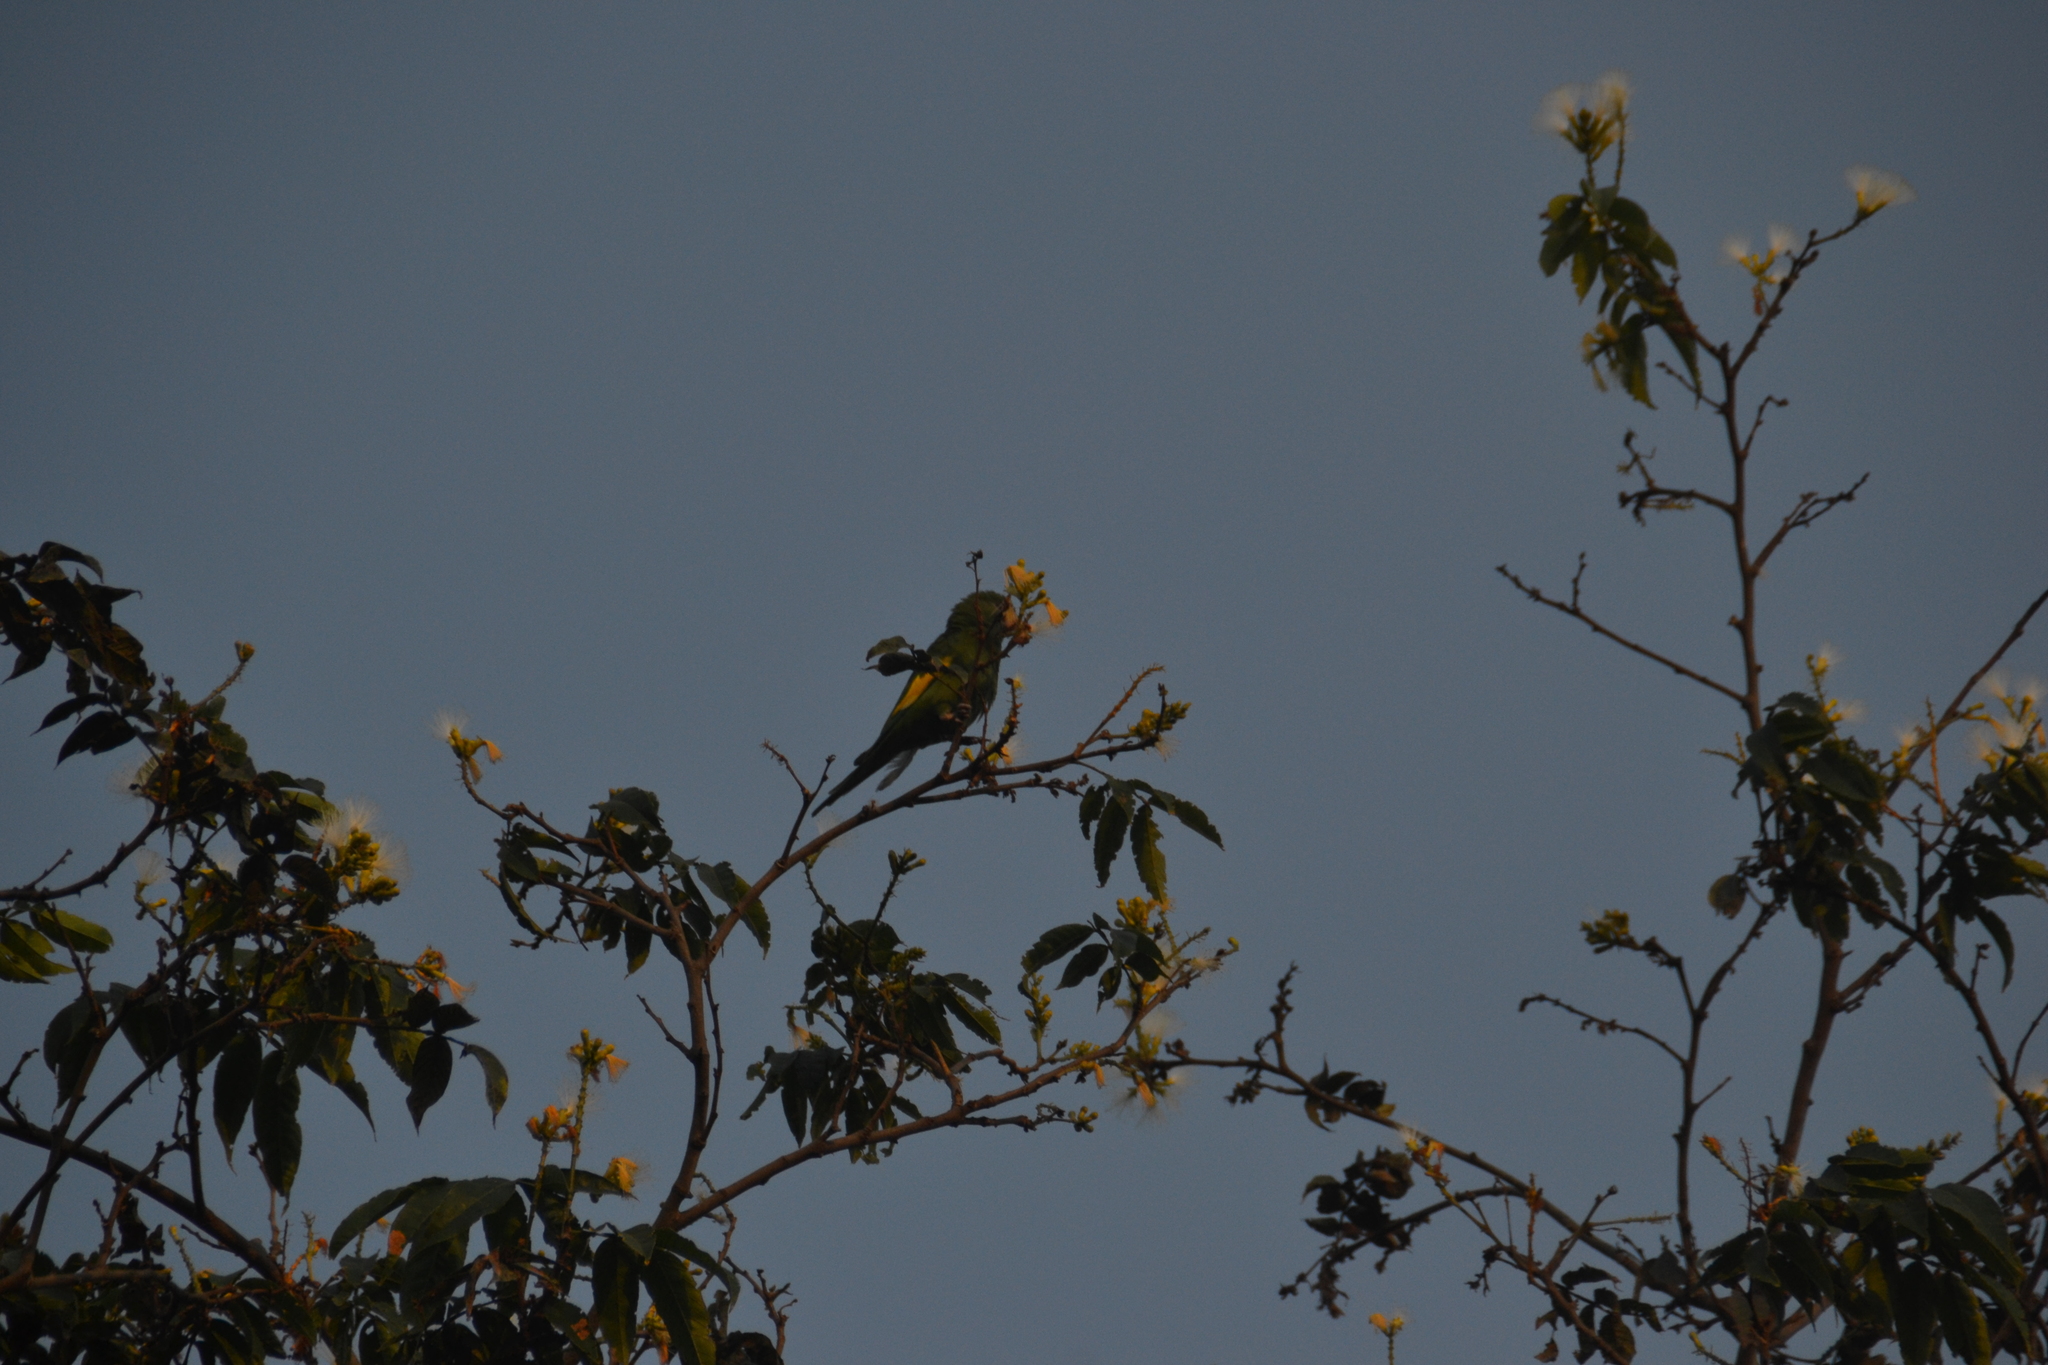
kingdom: Animalia
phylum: Chordata
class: Aves
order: Psittaciformes
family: Psittacidae
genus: Brotogeris
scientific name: Brotogeris versicolurus
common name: White-winged parakeet
